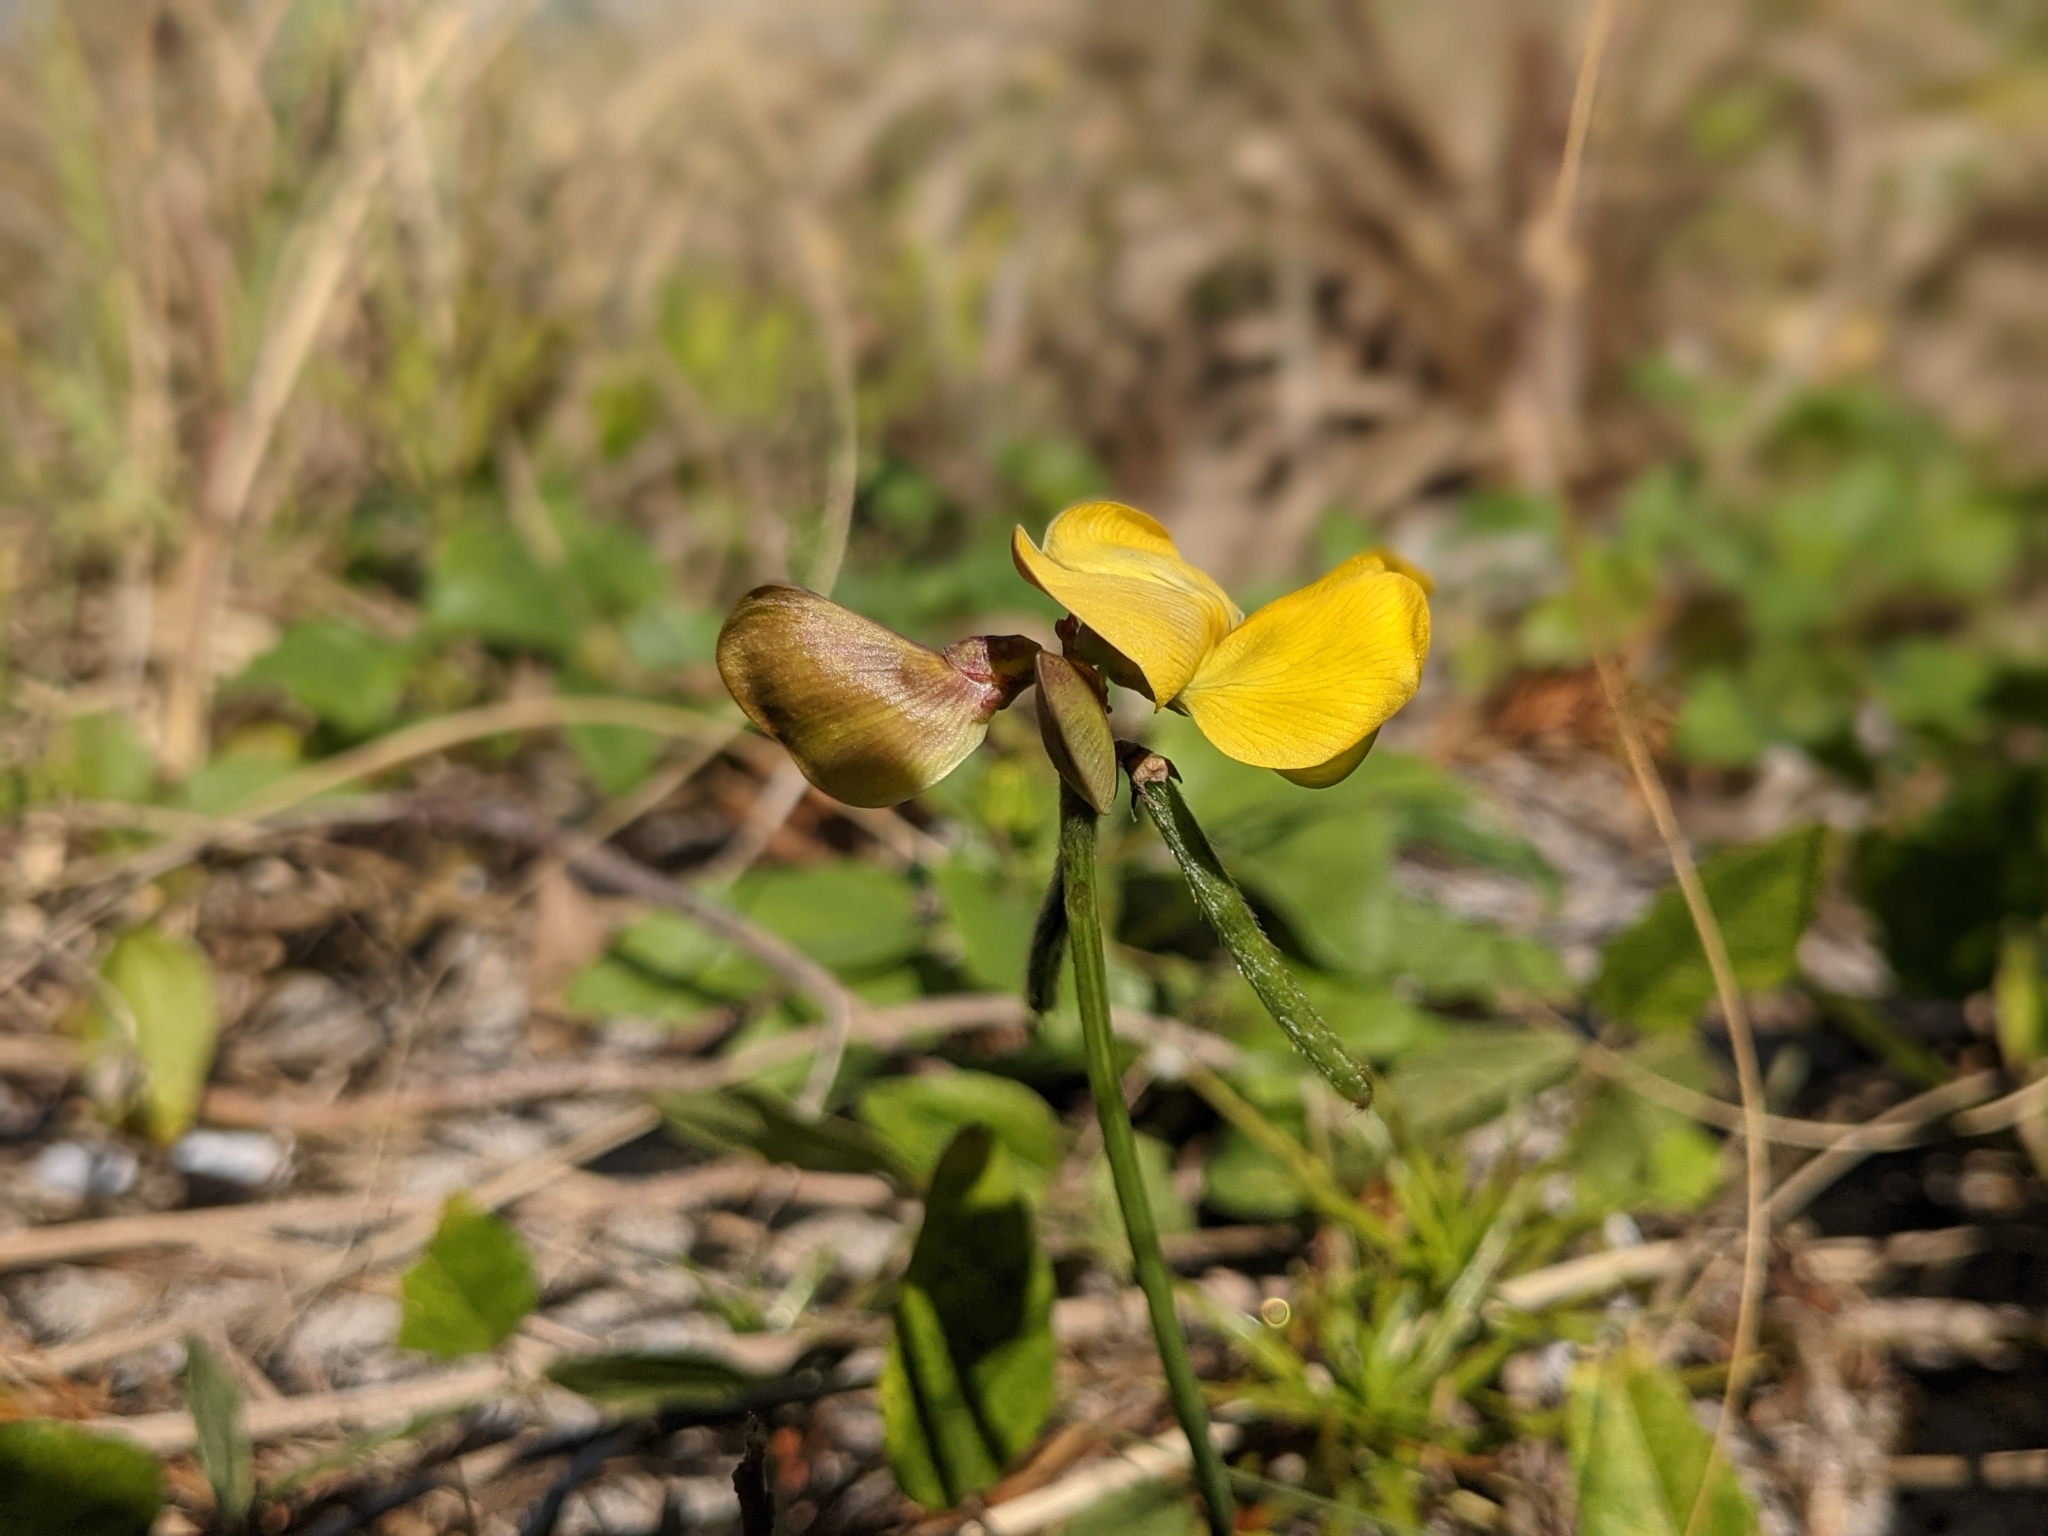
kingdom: Plantae
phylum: Tracheophyta
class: Magnoliopsida
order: Fabales
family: Fabaceae
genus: Vigna
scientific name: Vigna luteola
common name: Hairypod cowpea
